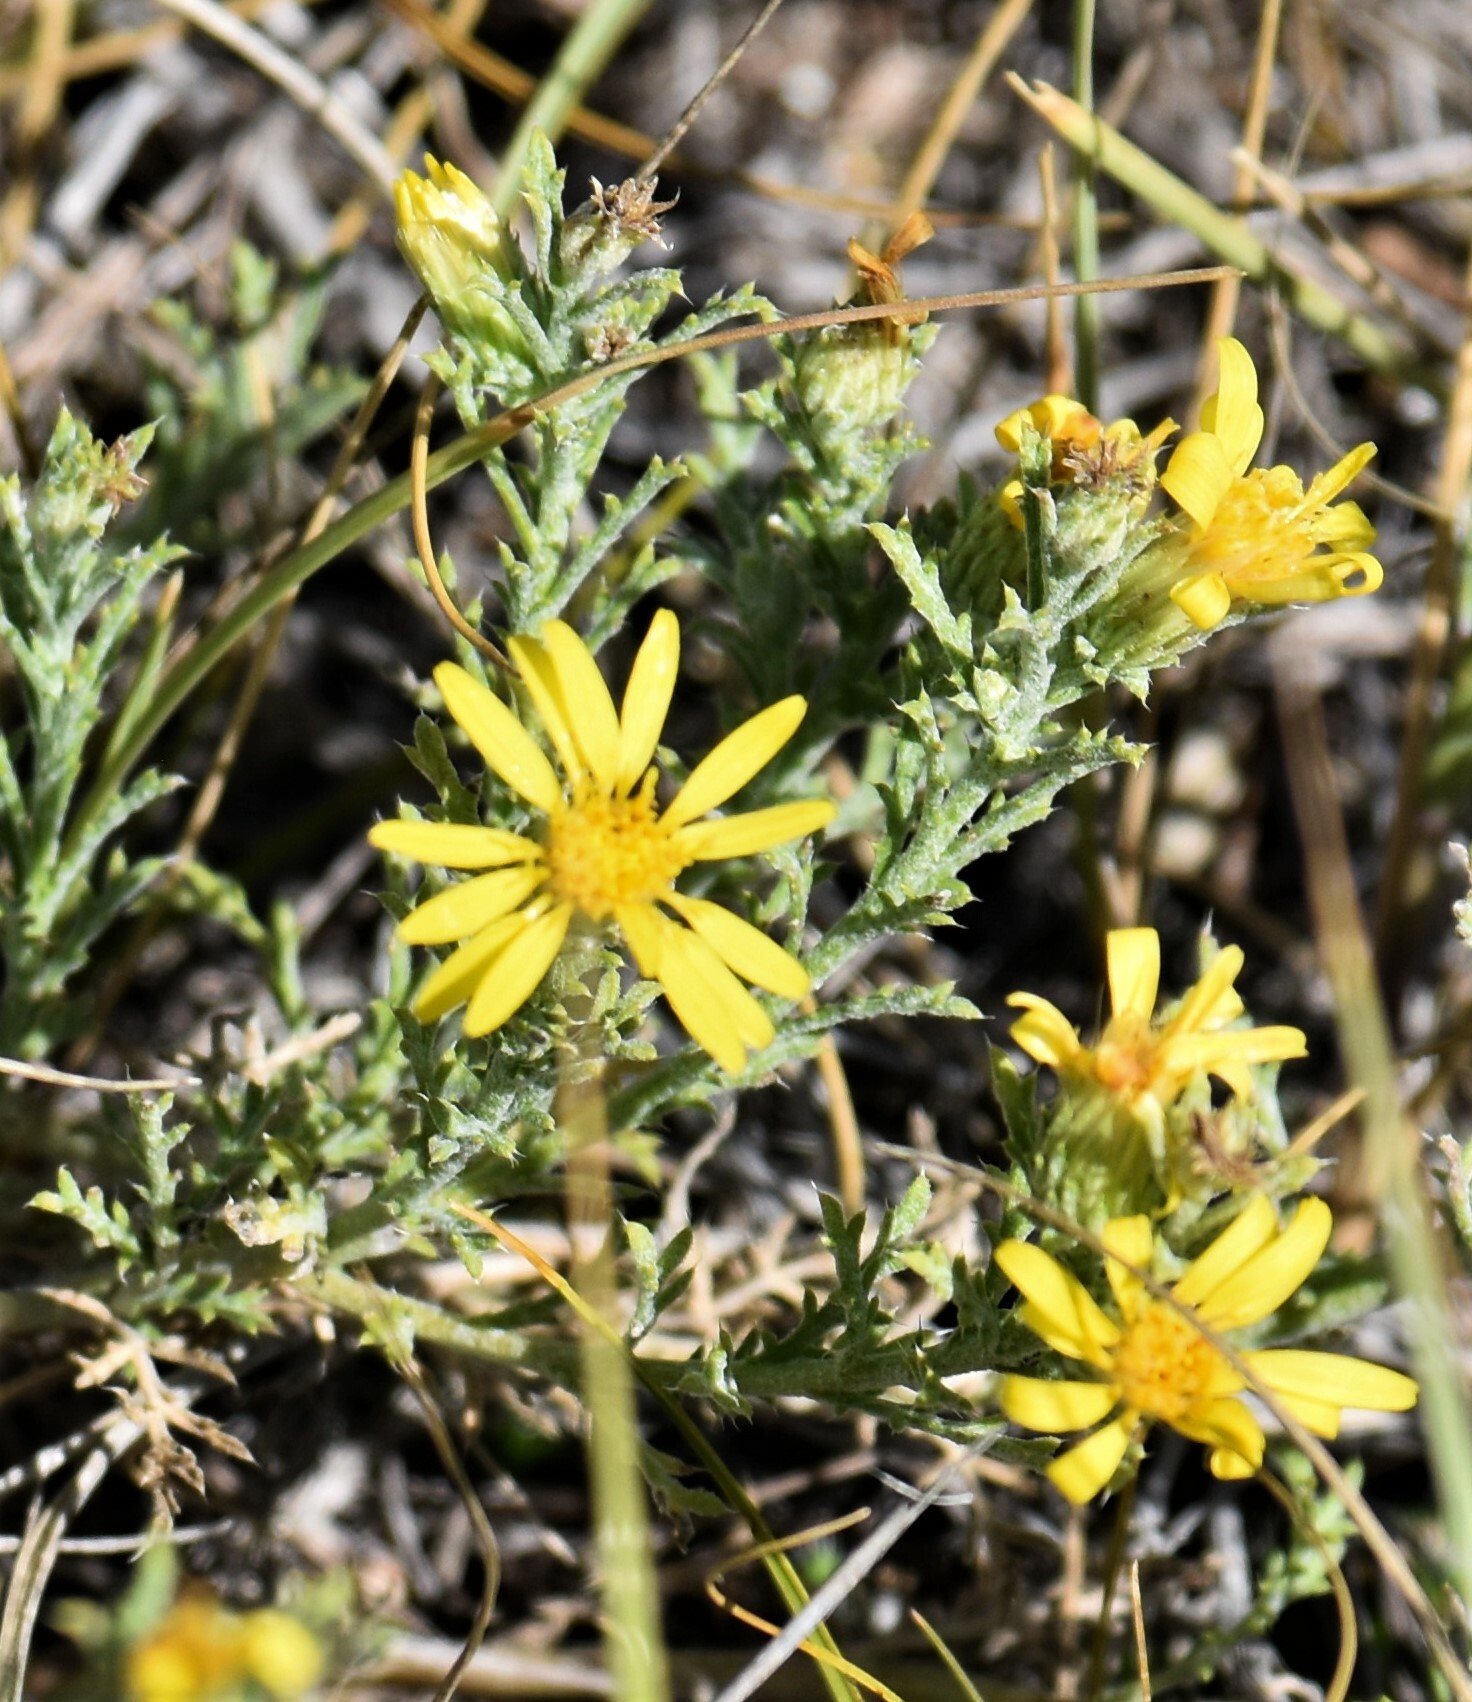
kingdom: Plantae
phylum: Tracheophyta
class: Magnoliopsida
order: Asterales
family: Asteraceae
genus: Xanthisma
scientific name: Xanthisma spinulosum
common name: Spiny goldenweed
